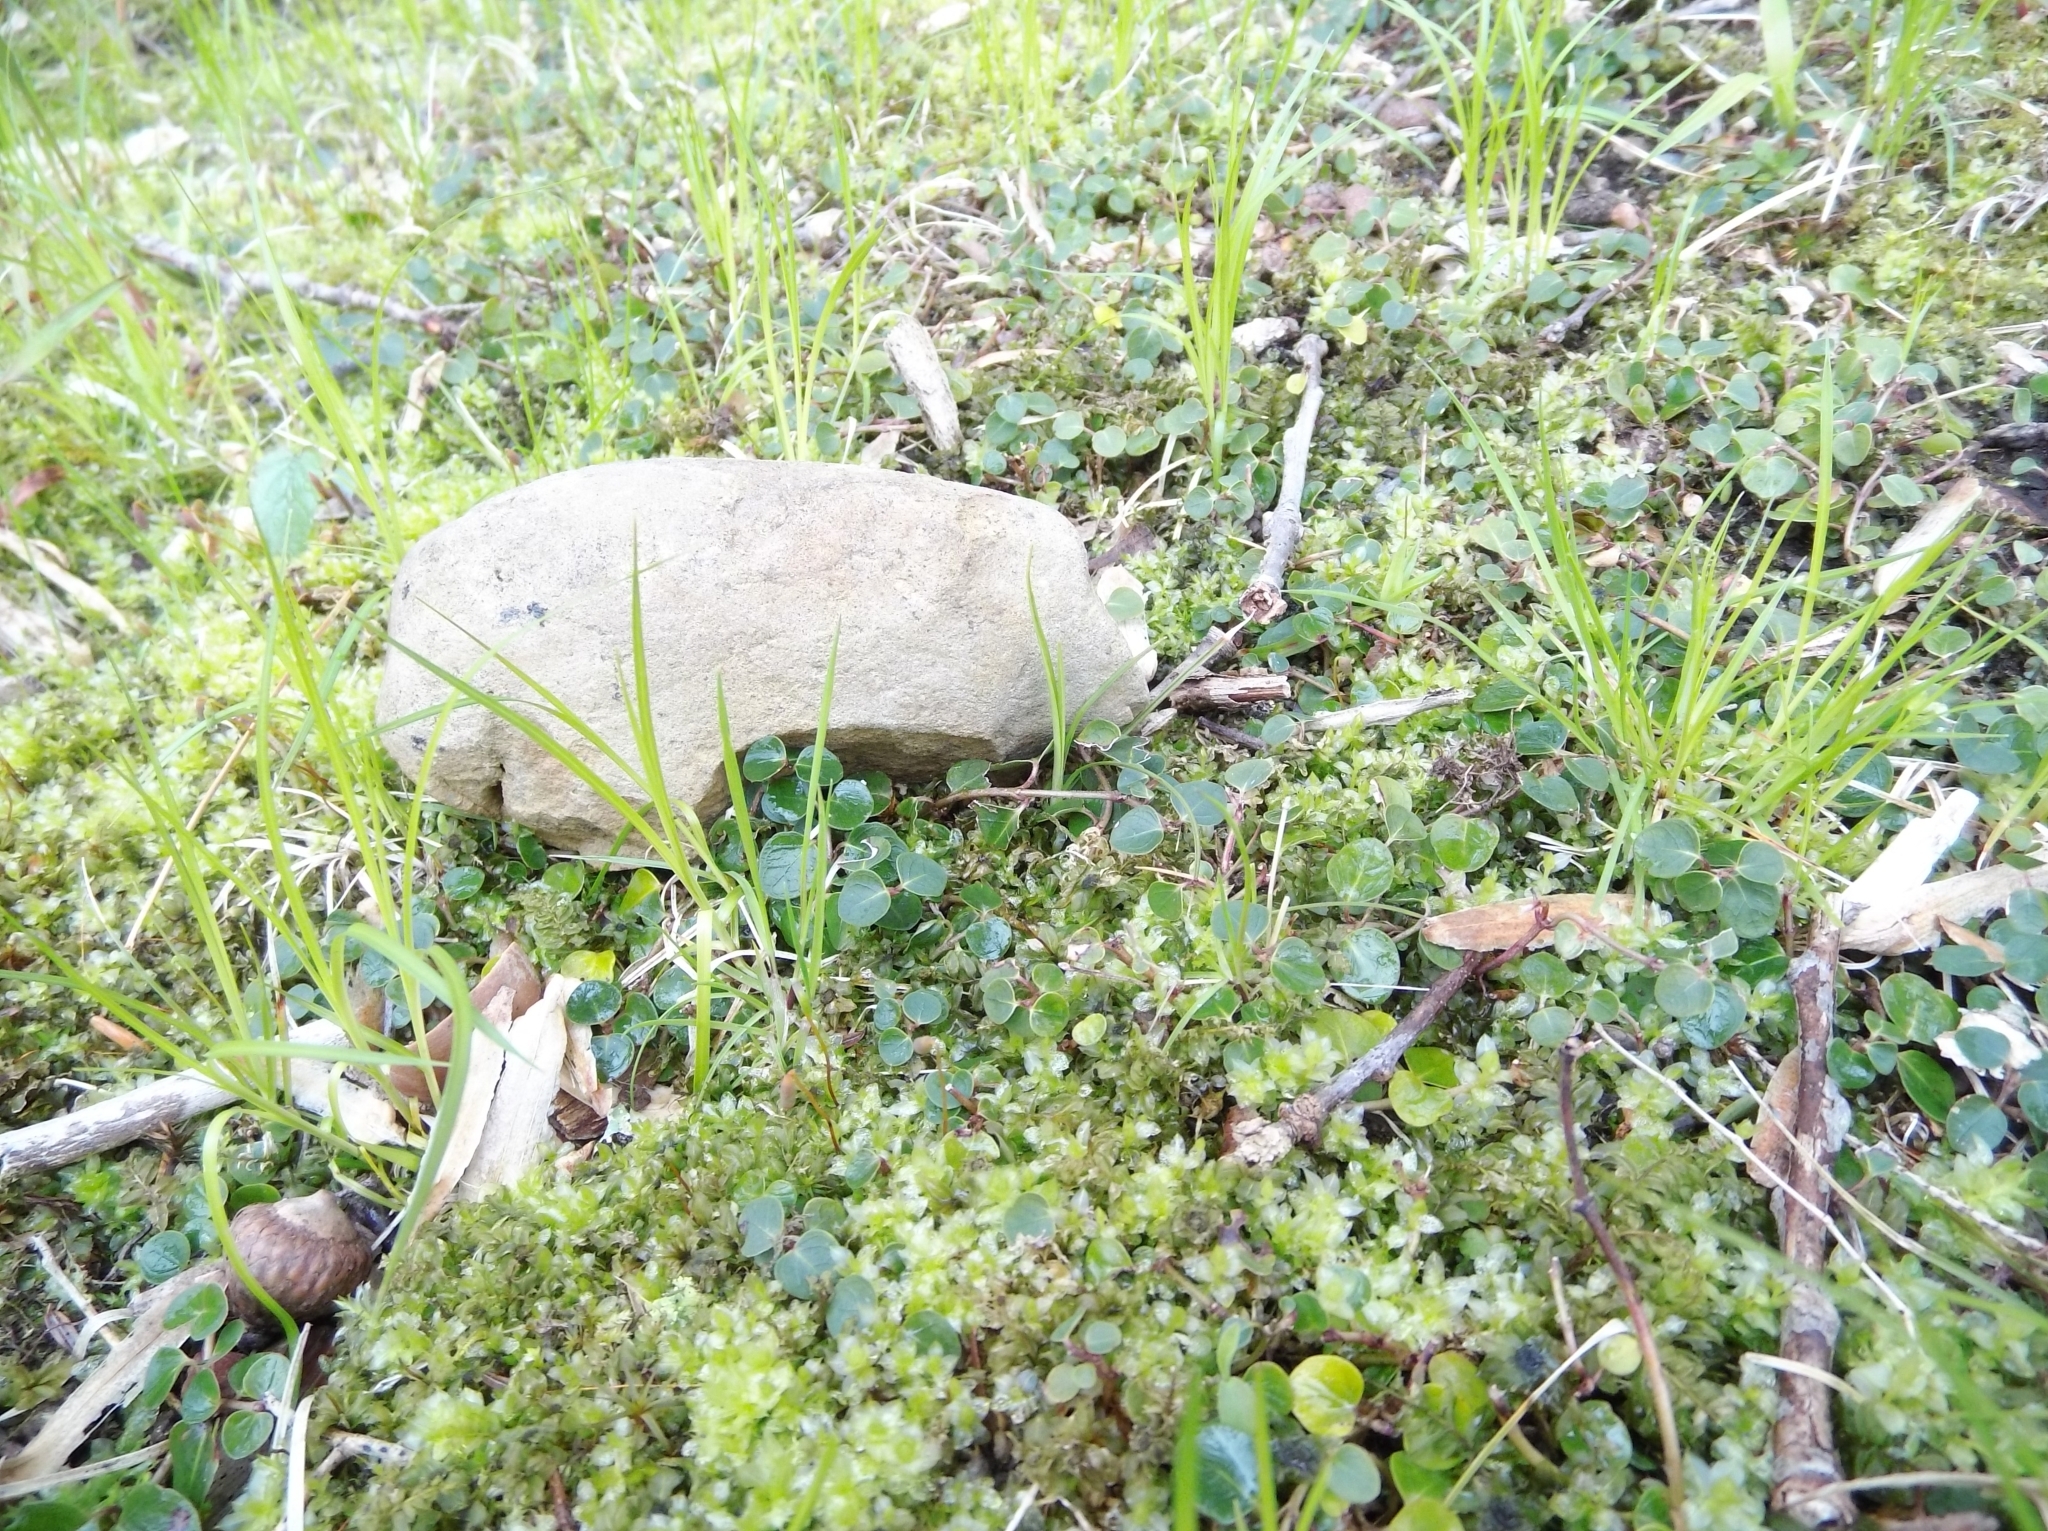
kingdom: Plantae
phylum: Tracheophyta
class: Magnoliopsida
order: Gentianales
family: Rubiaceae
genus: Mitchella
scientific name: Mitchella repens
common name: Partridge-berry
